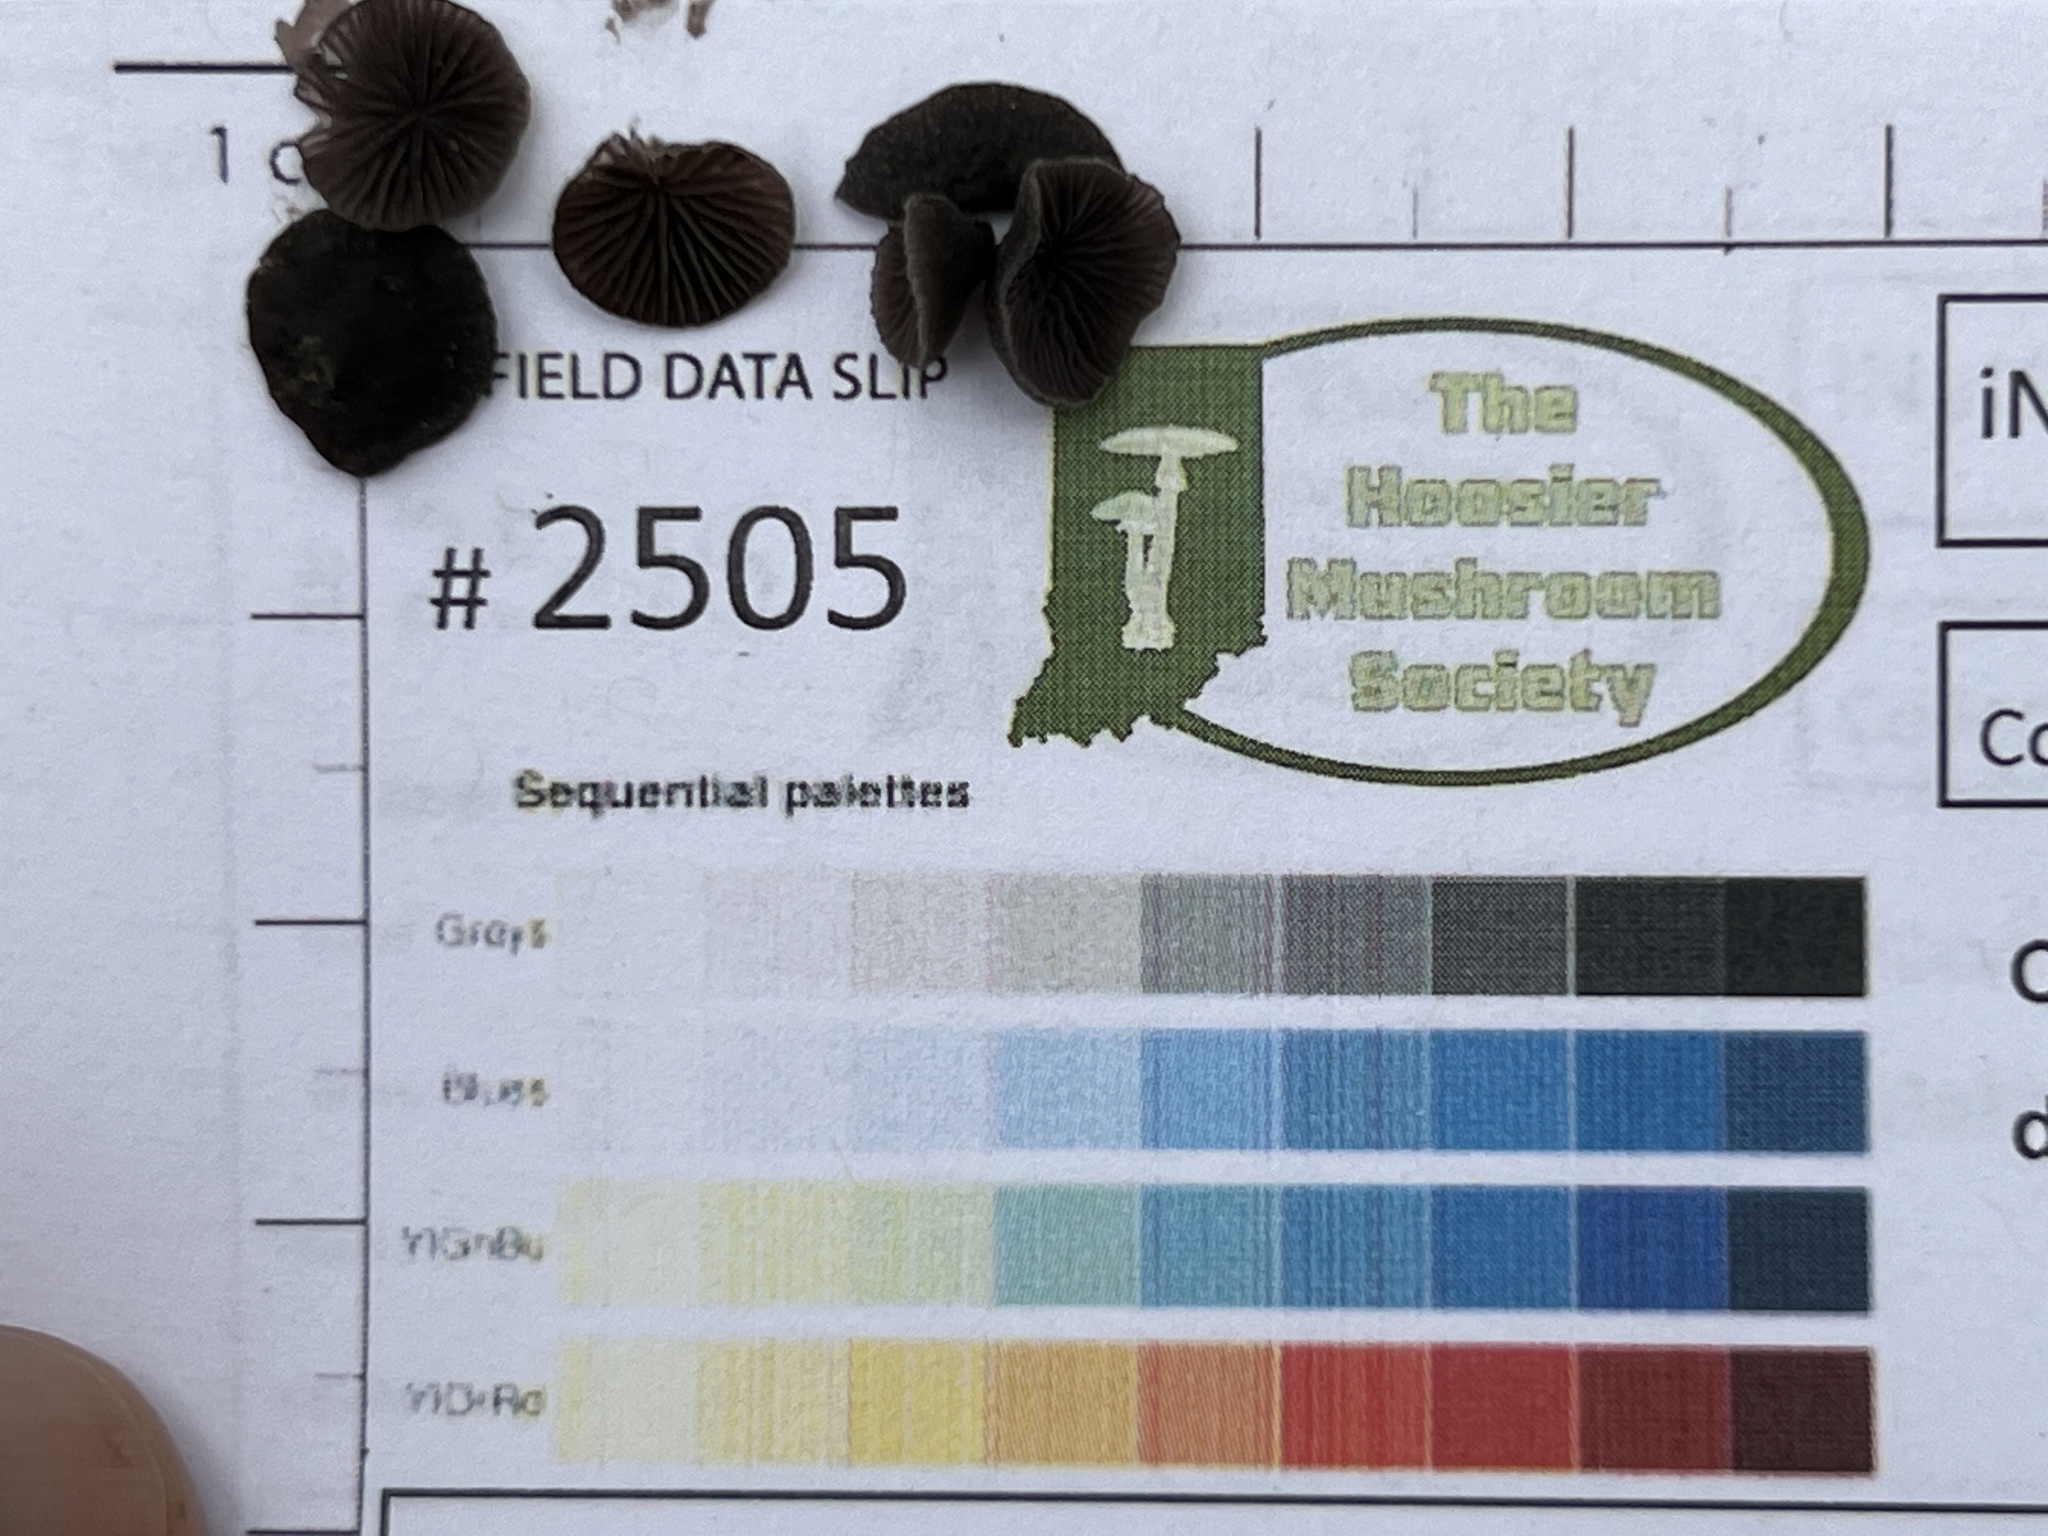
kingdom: Fungi
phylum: Basidiomycota
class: Agaricomycetes
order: Agaricales
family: Pleurotaceae
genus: Resupinatus
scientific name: Resupinatus alboniger
